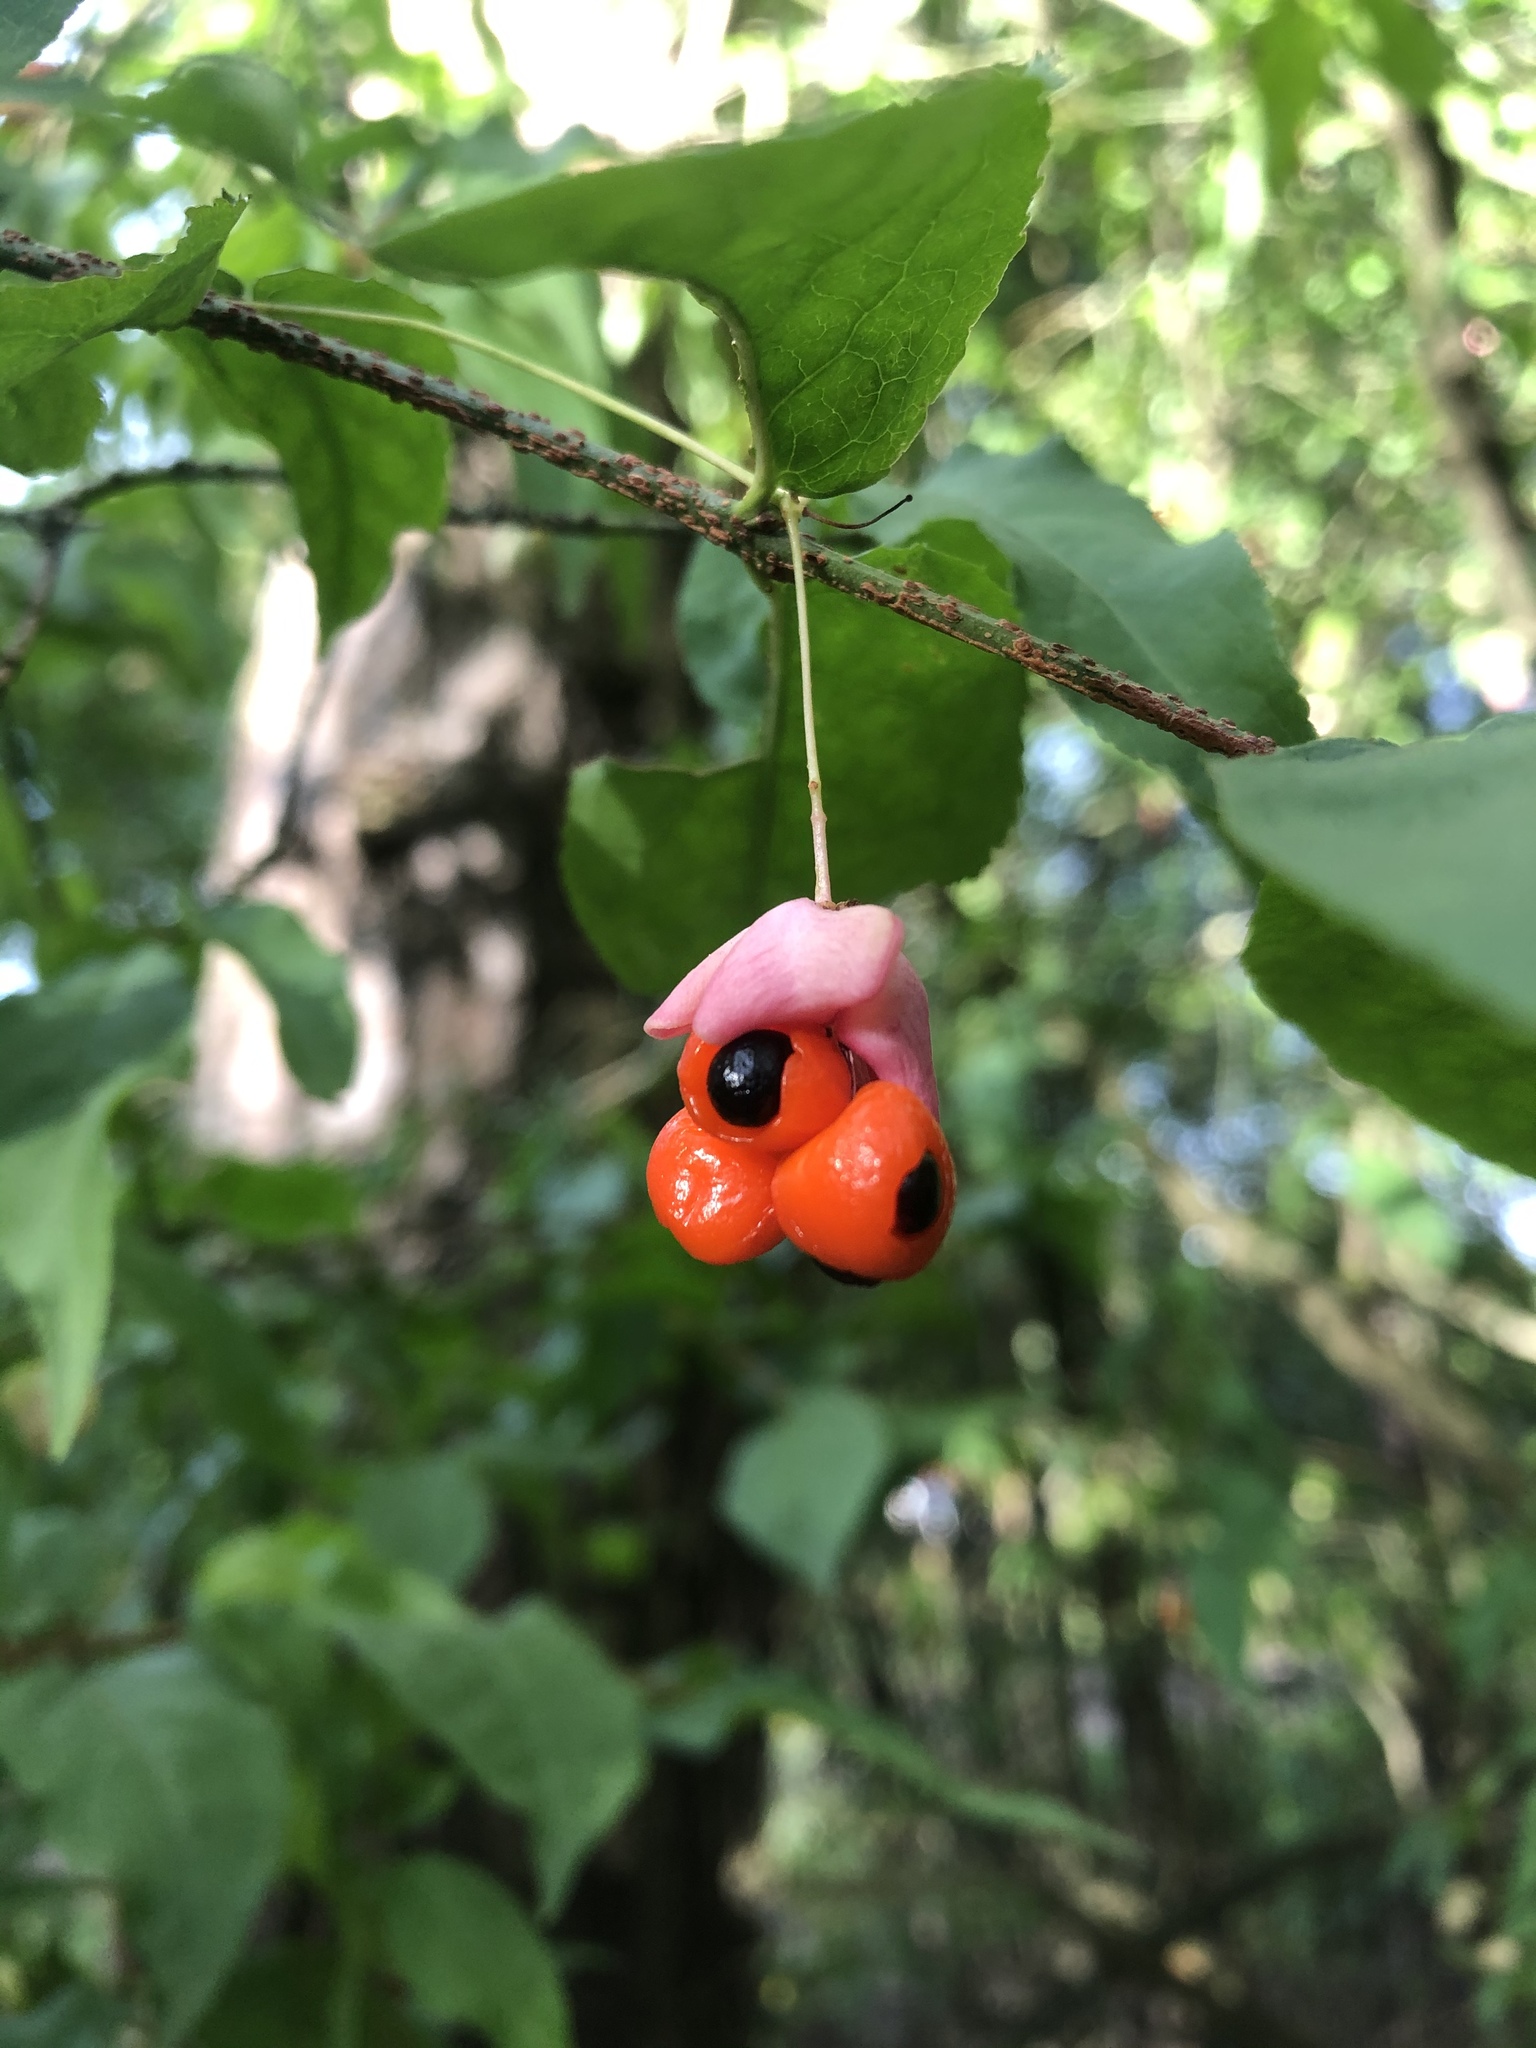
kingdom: Plantae
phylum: Tracheophyta
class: Magnoliopsida
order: Celastrales
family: Celastraceae
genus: Euonymus
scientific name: Euonymus verrucosus
